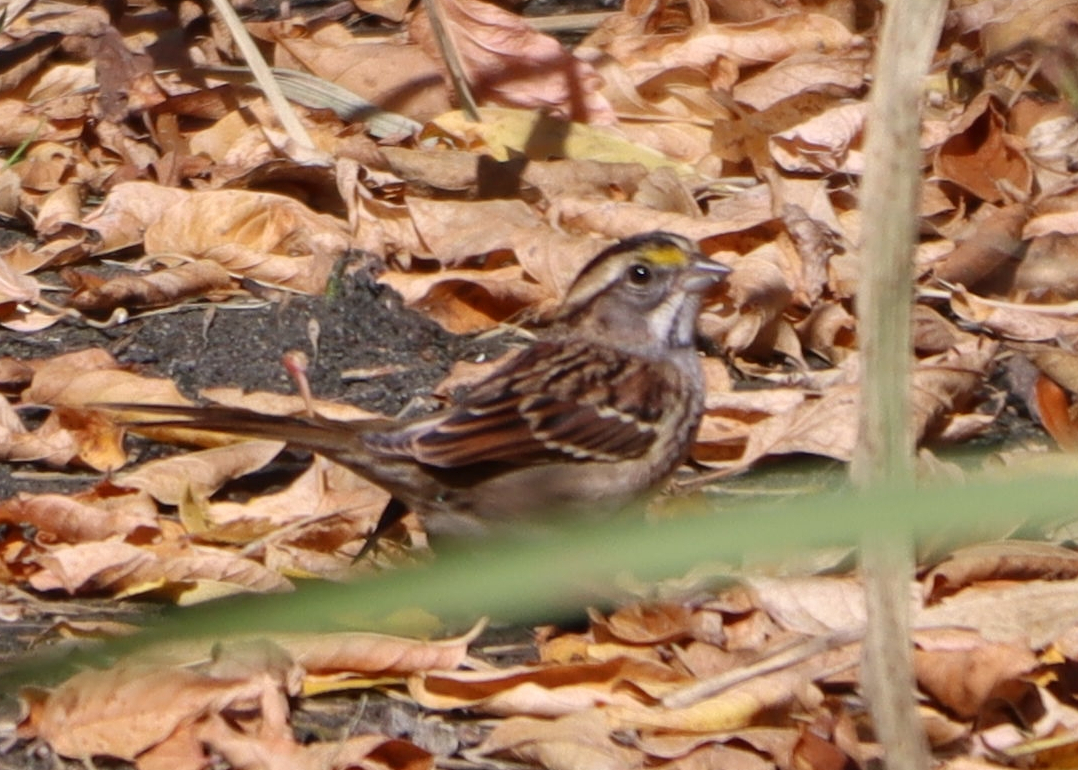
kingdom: Animalia
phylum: Chordata
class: Aves
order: Passeriformes
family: Passerellidae
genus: Zonotrichia
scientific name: Zonotrichia albicollis
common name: White-throated sparrow
